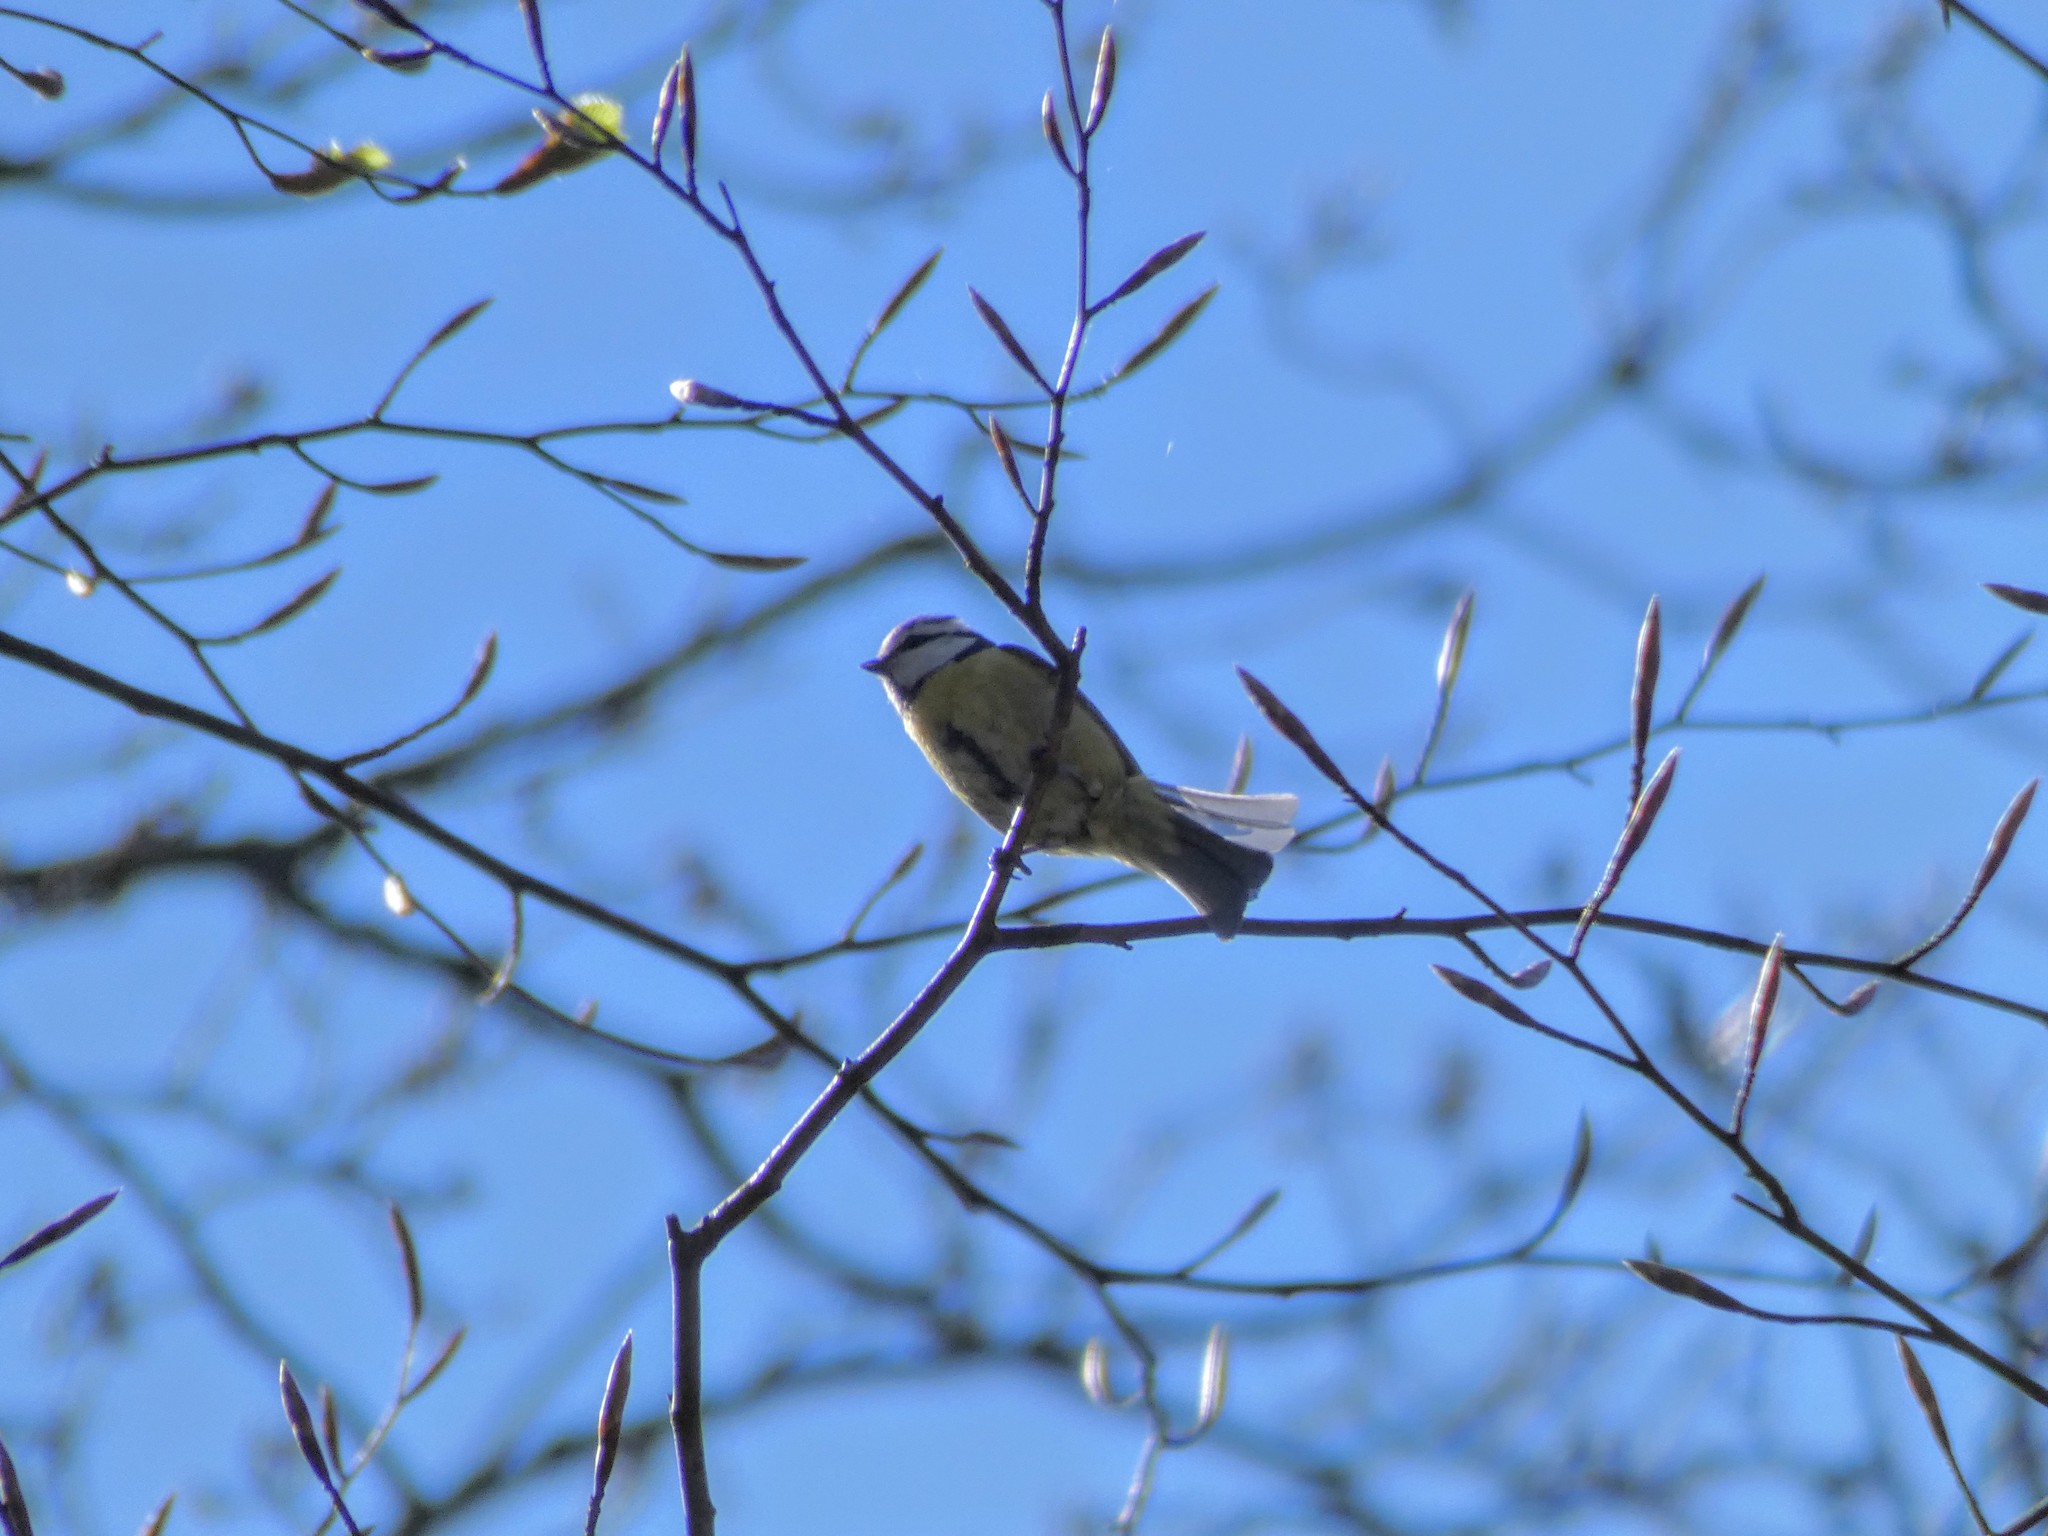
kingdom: Animalia
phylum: Chordata
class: Aves
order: Passeriformes
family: Paridae
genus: Cyanistes
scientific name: Cyanistes caeruleus
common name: Eurasian blue tit
